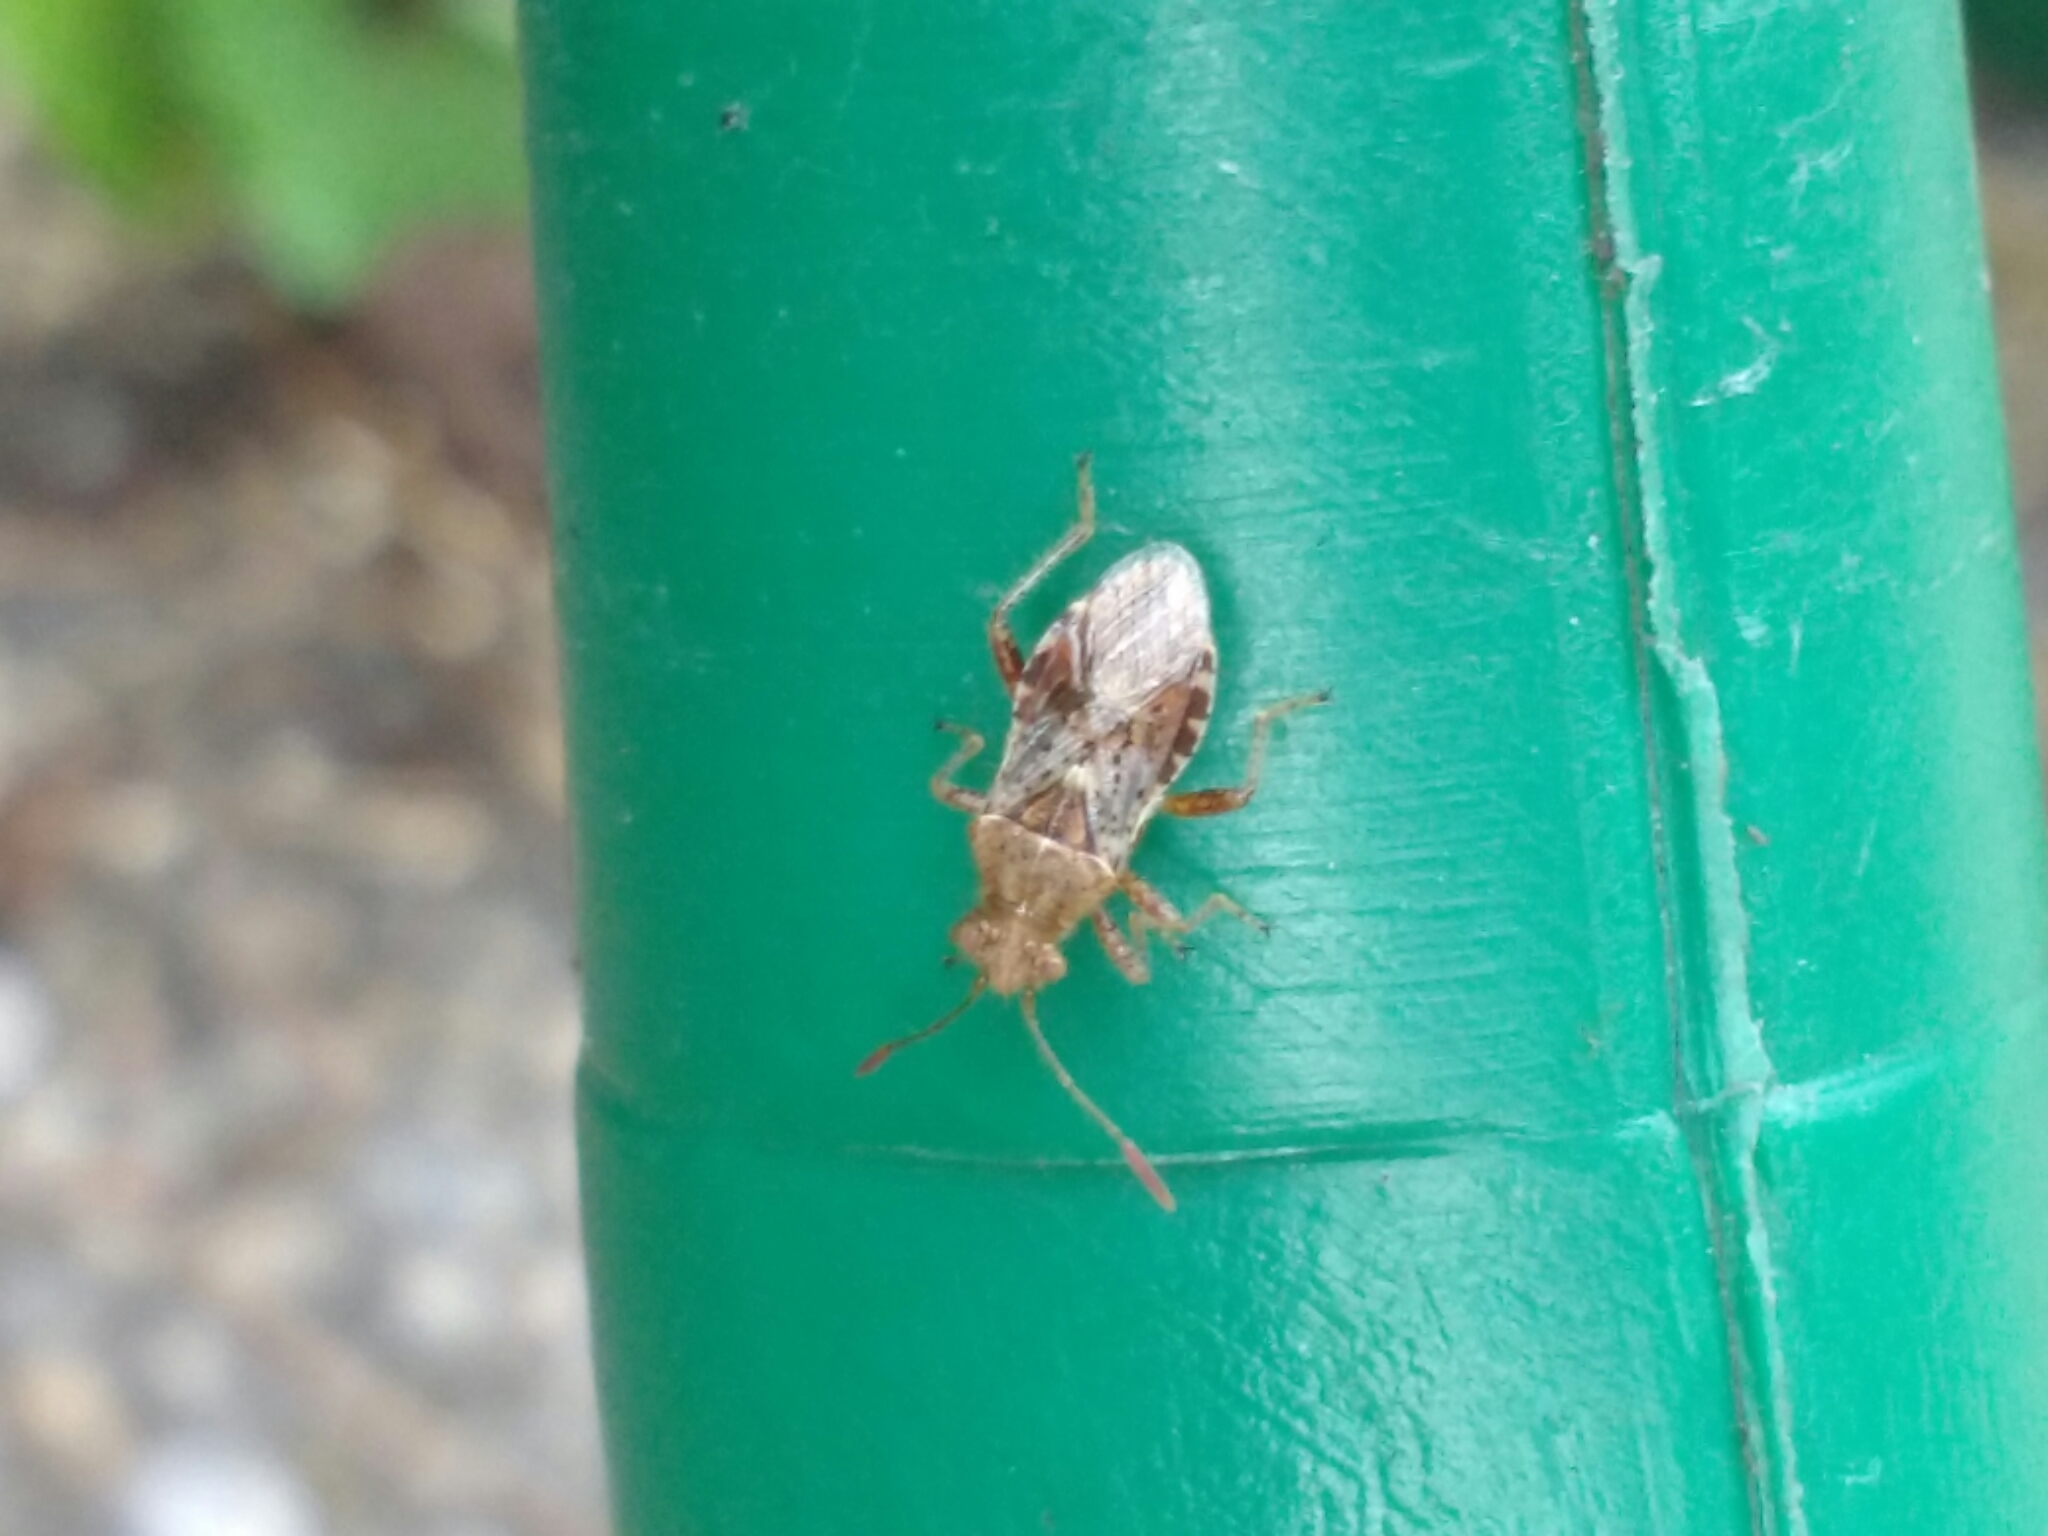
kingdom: Animalia
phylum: Arthropoda
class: Insecta
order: Hemiptera
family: Rhopalidae
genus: Rhopalus
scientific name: Rhopalus subrufus
